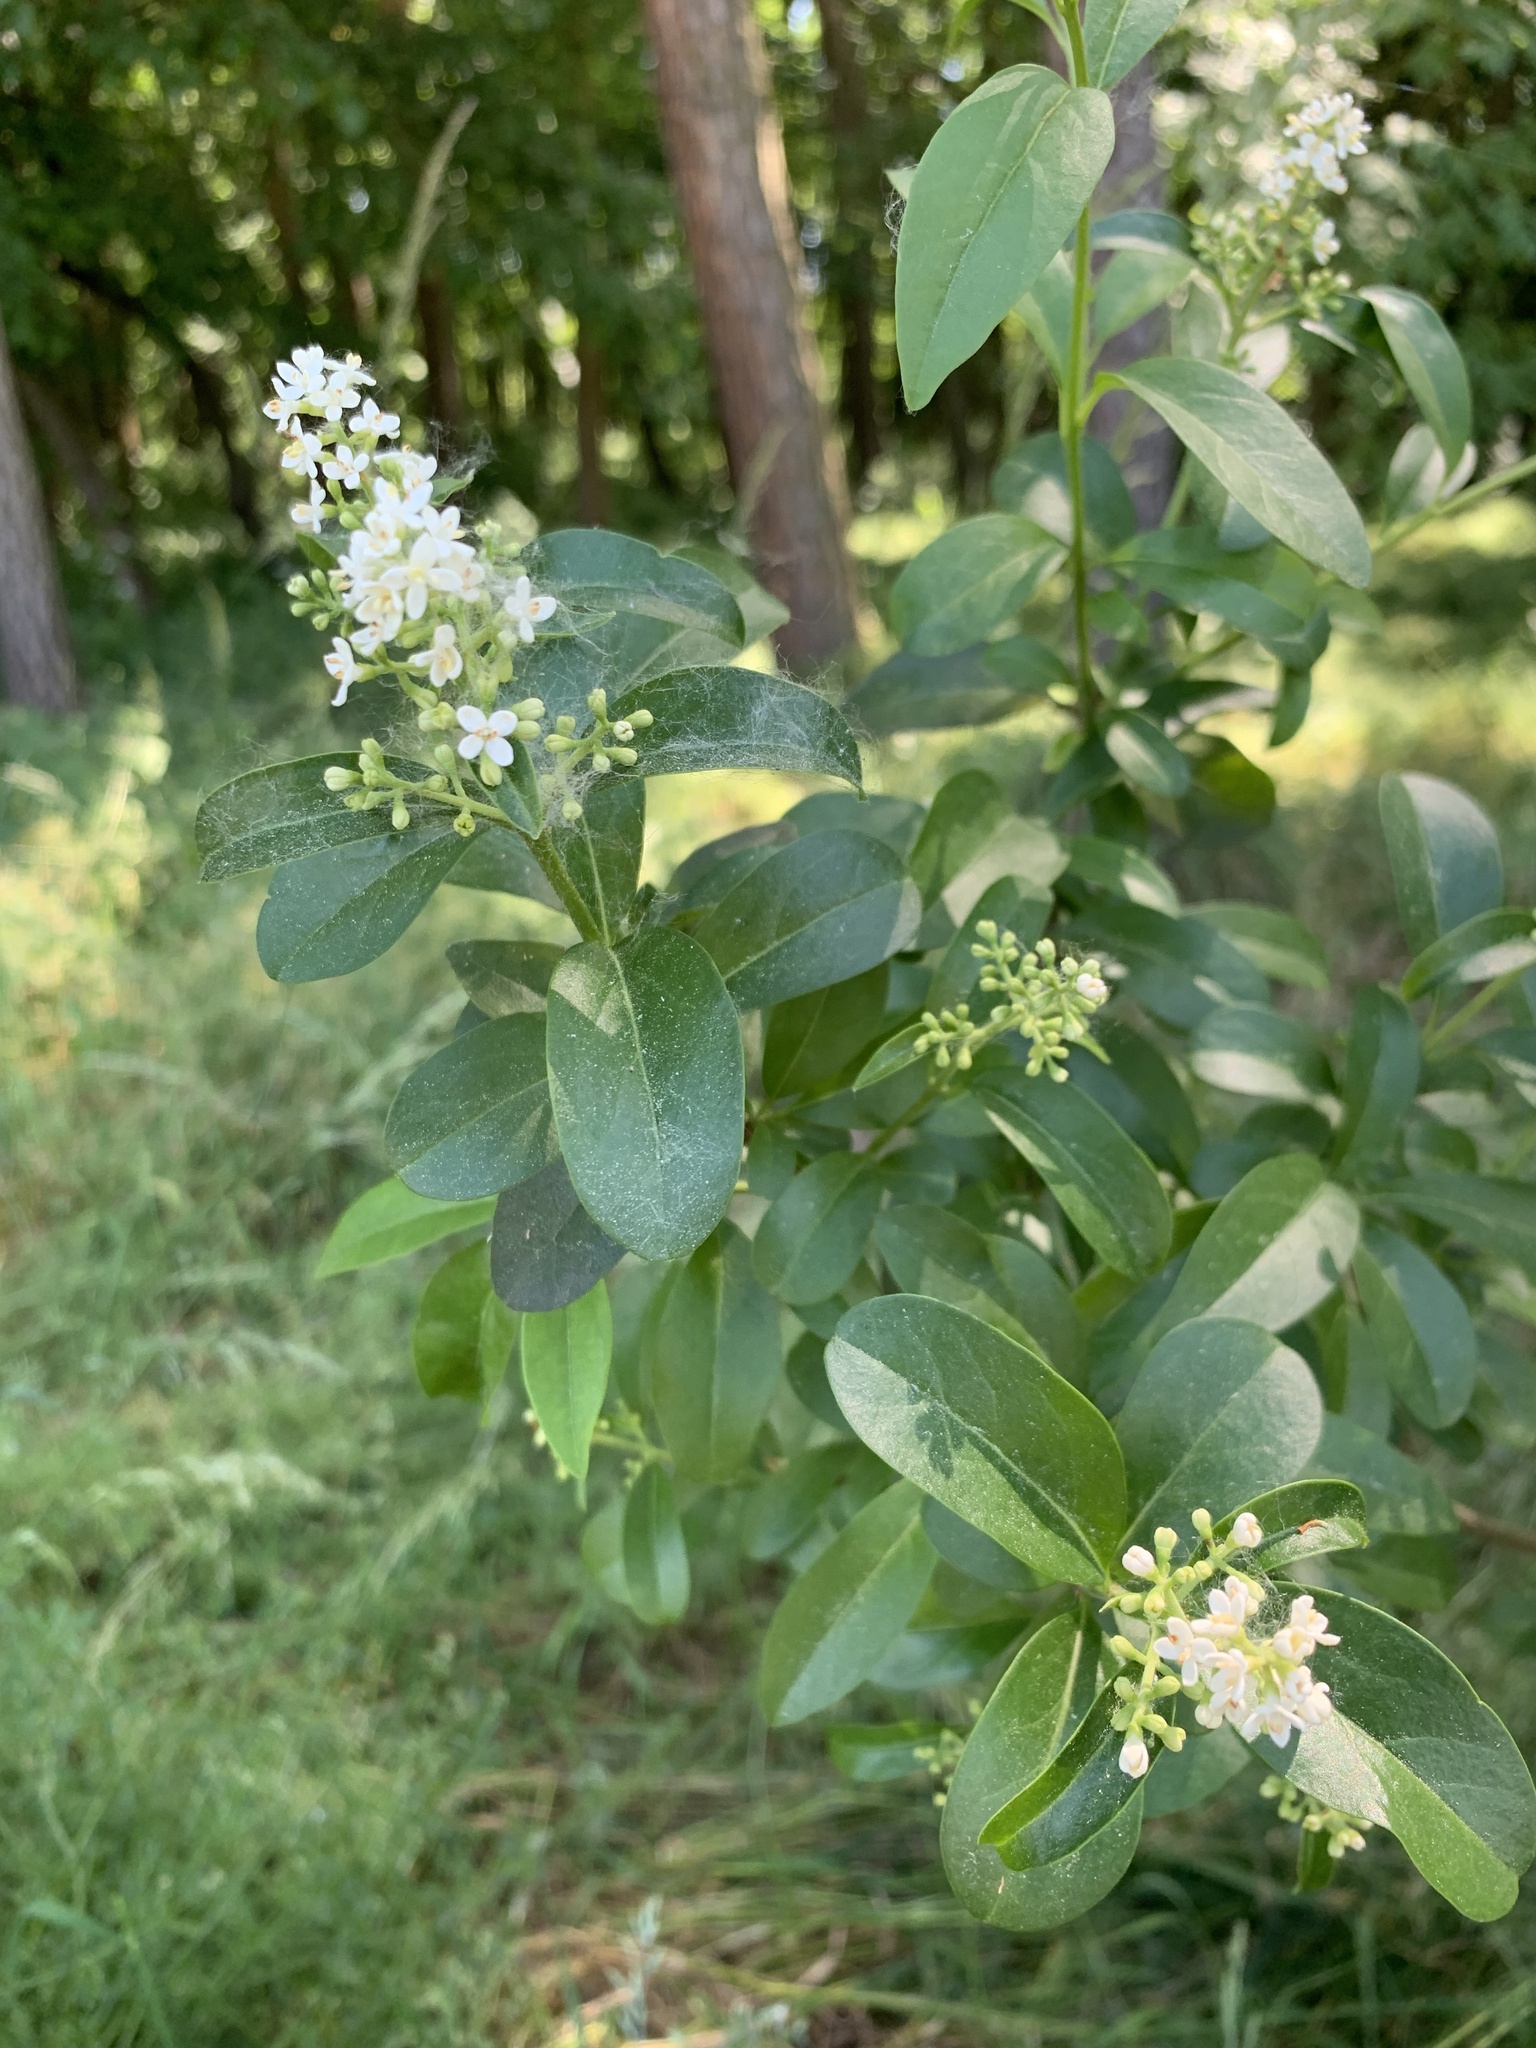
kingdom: Plantae
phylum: Tracheophyta
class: Magnoliopsida
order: Lamiales
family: Oleaceae
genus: Ligustrum
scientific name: Ligustrum vulgare
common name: Wild privet
